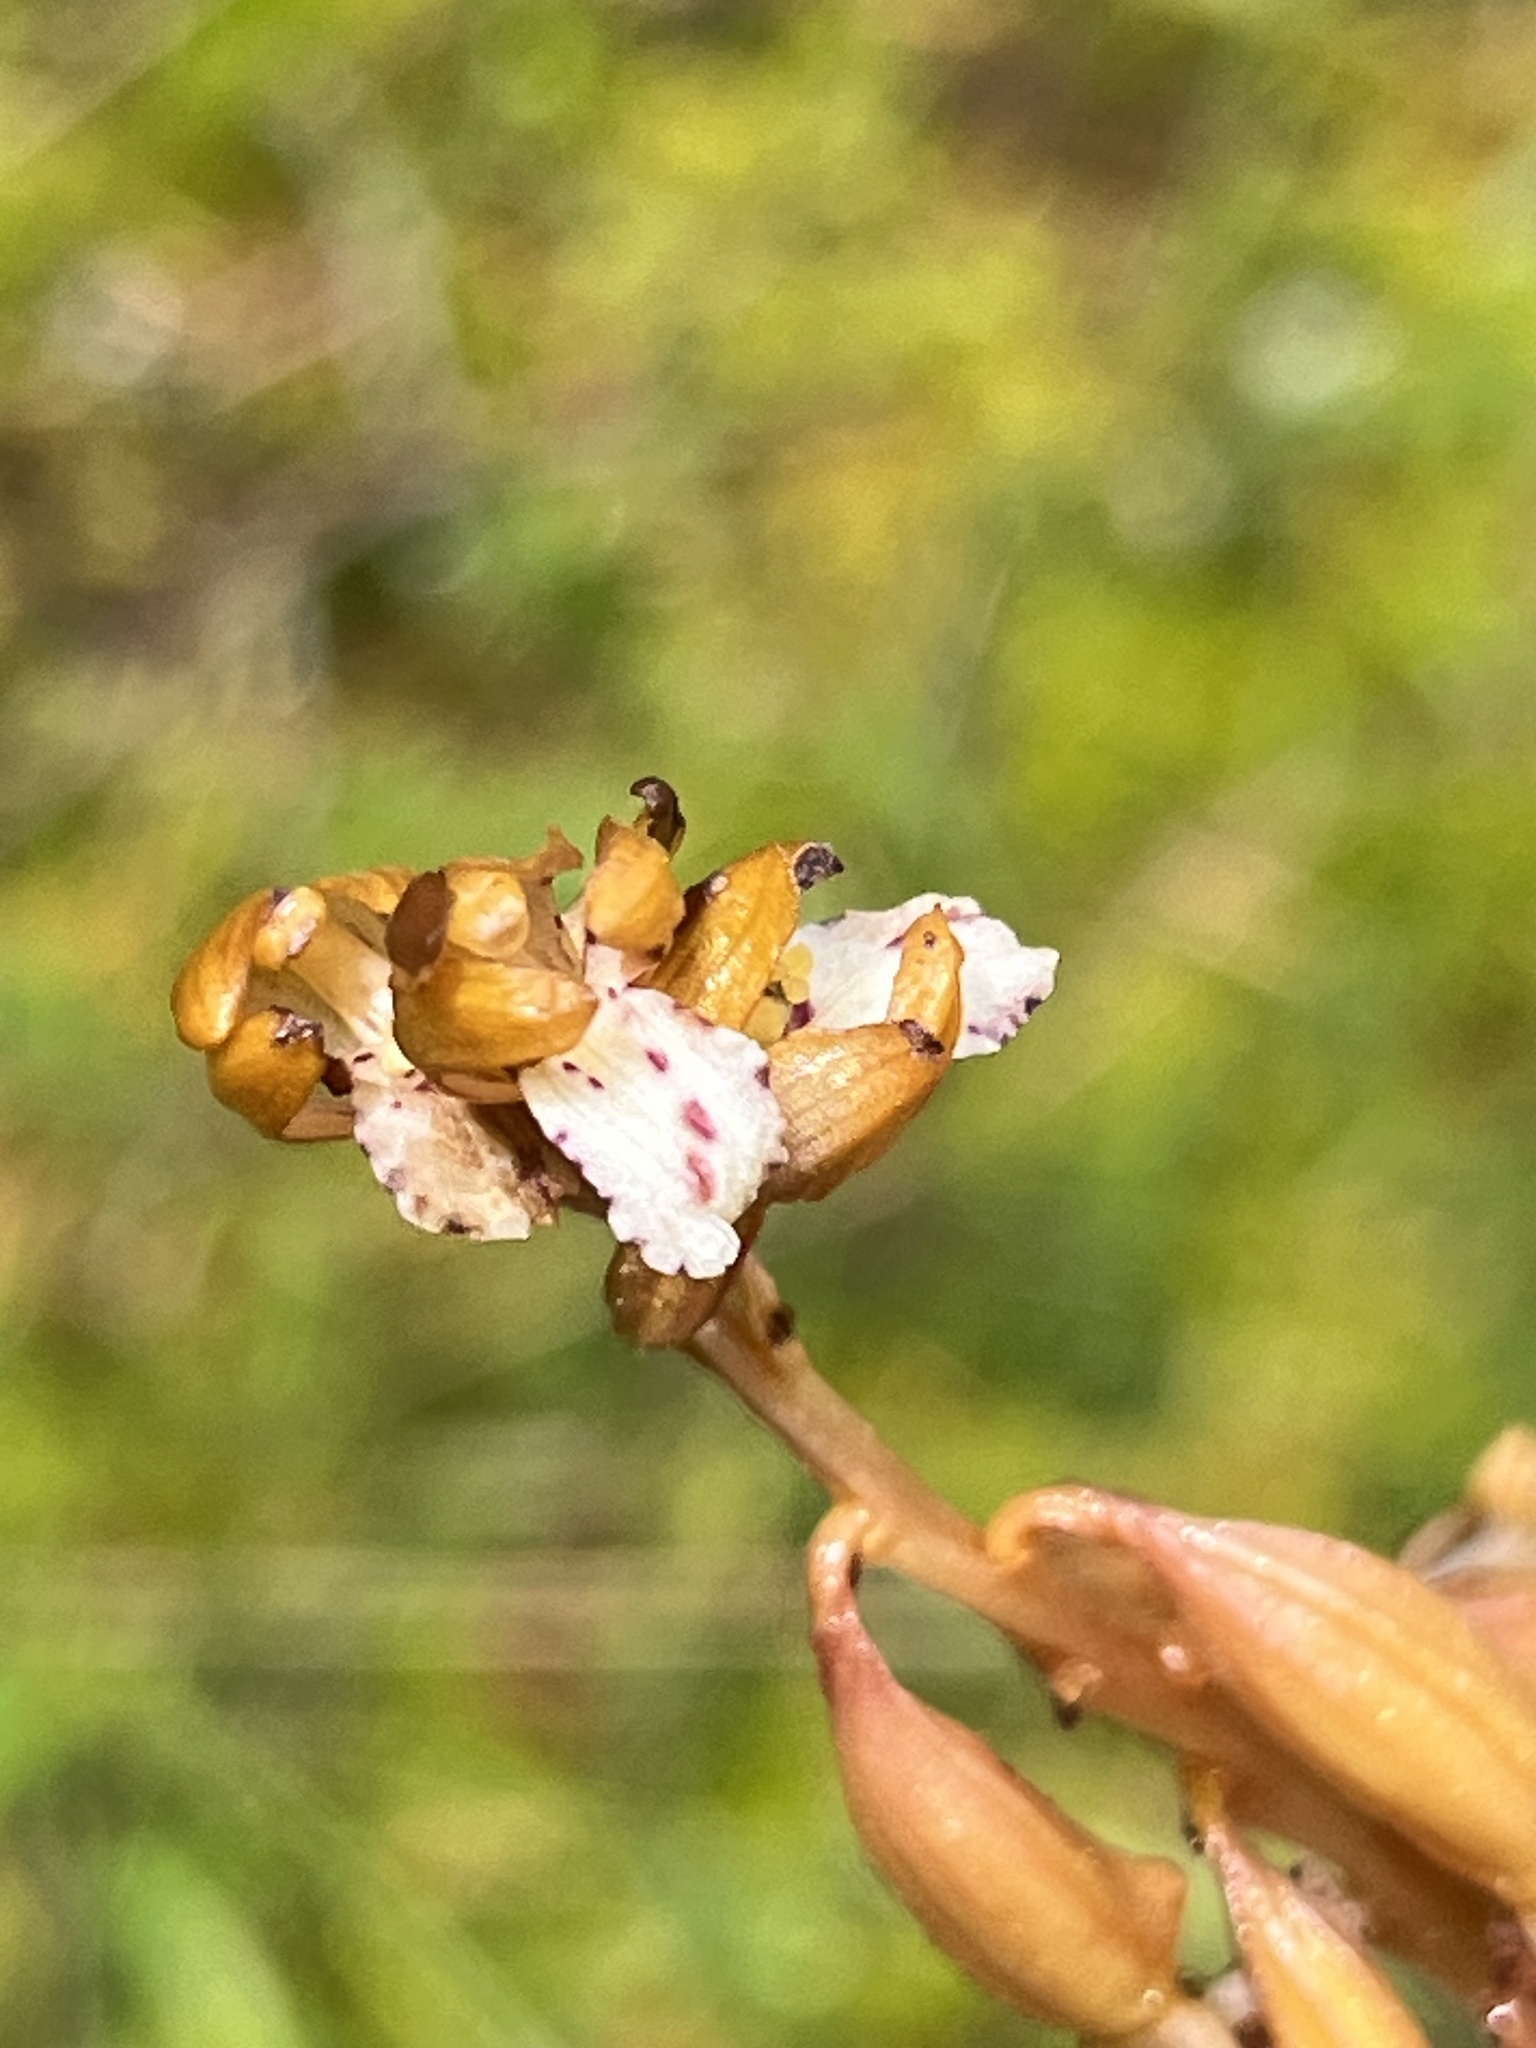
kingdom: Plantae
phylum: Tracheophyta
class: Liliopsida
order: Asparagales
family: Orchidaceae
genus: Corallorhiza
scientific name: Corallorhiza maculata
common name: Spotted coralroot
